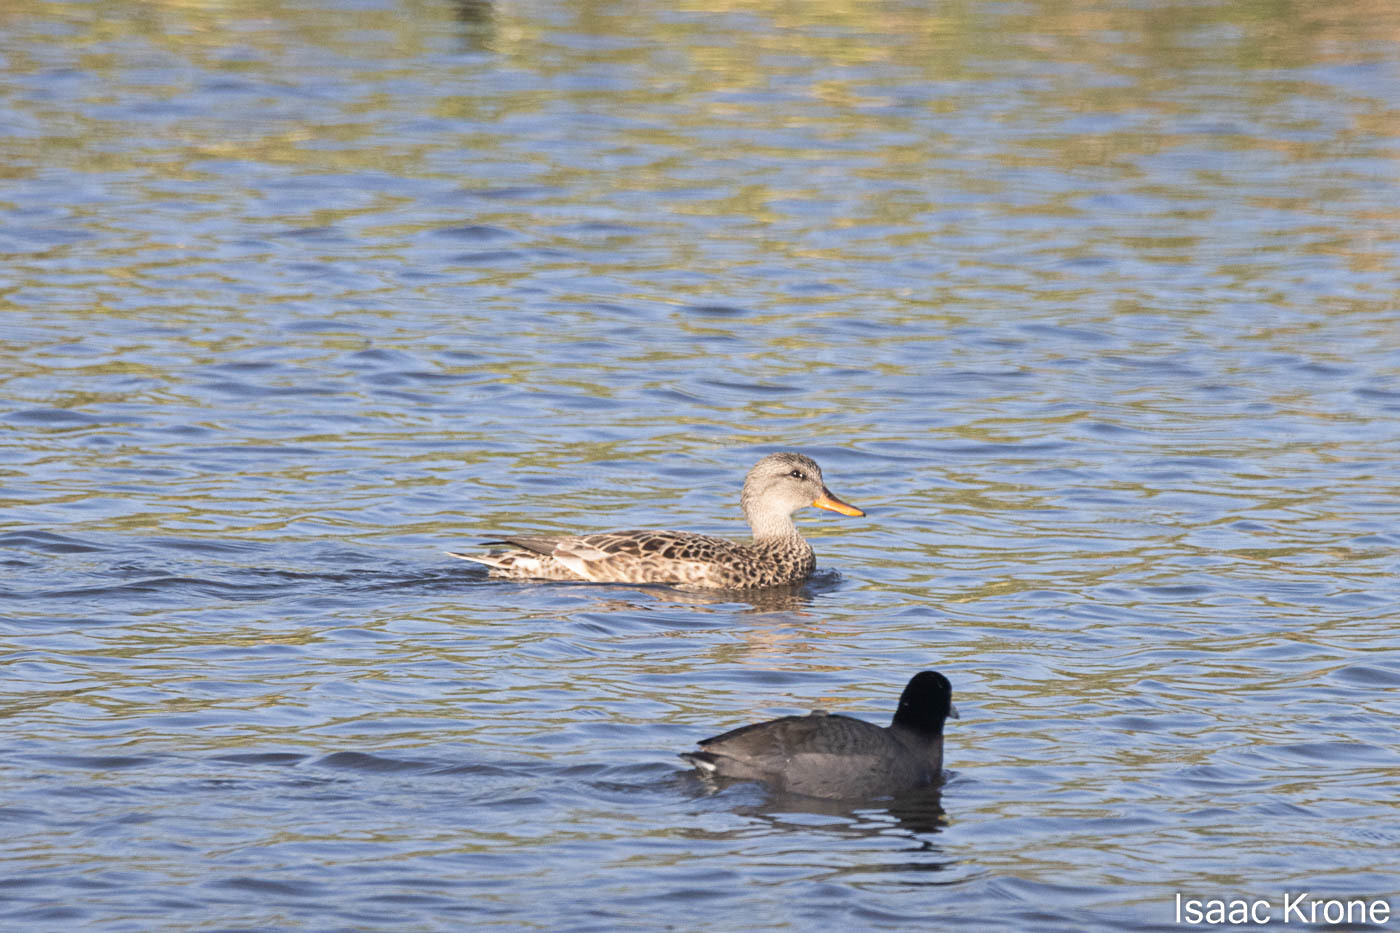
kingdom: Animalia
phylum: Chordata
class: Aves
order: Anseriformes
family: Anatidae
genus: Mareca
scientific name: Mareca strepera
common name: Gadwall
